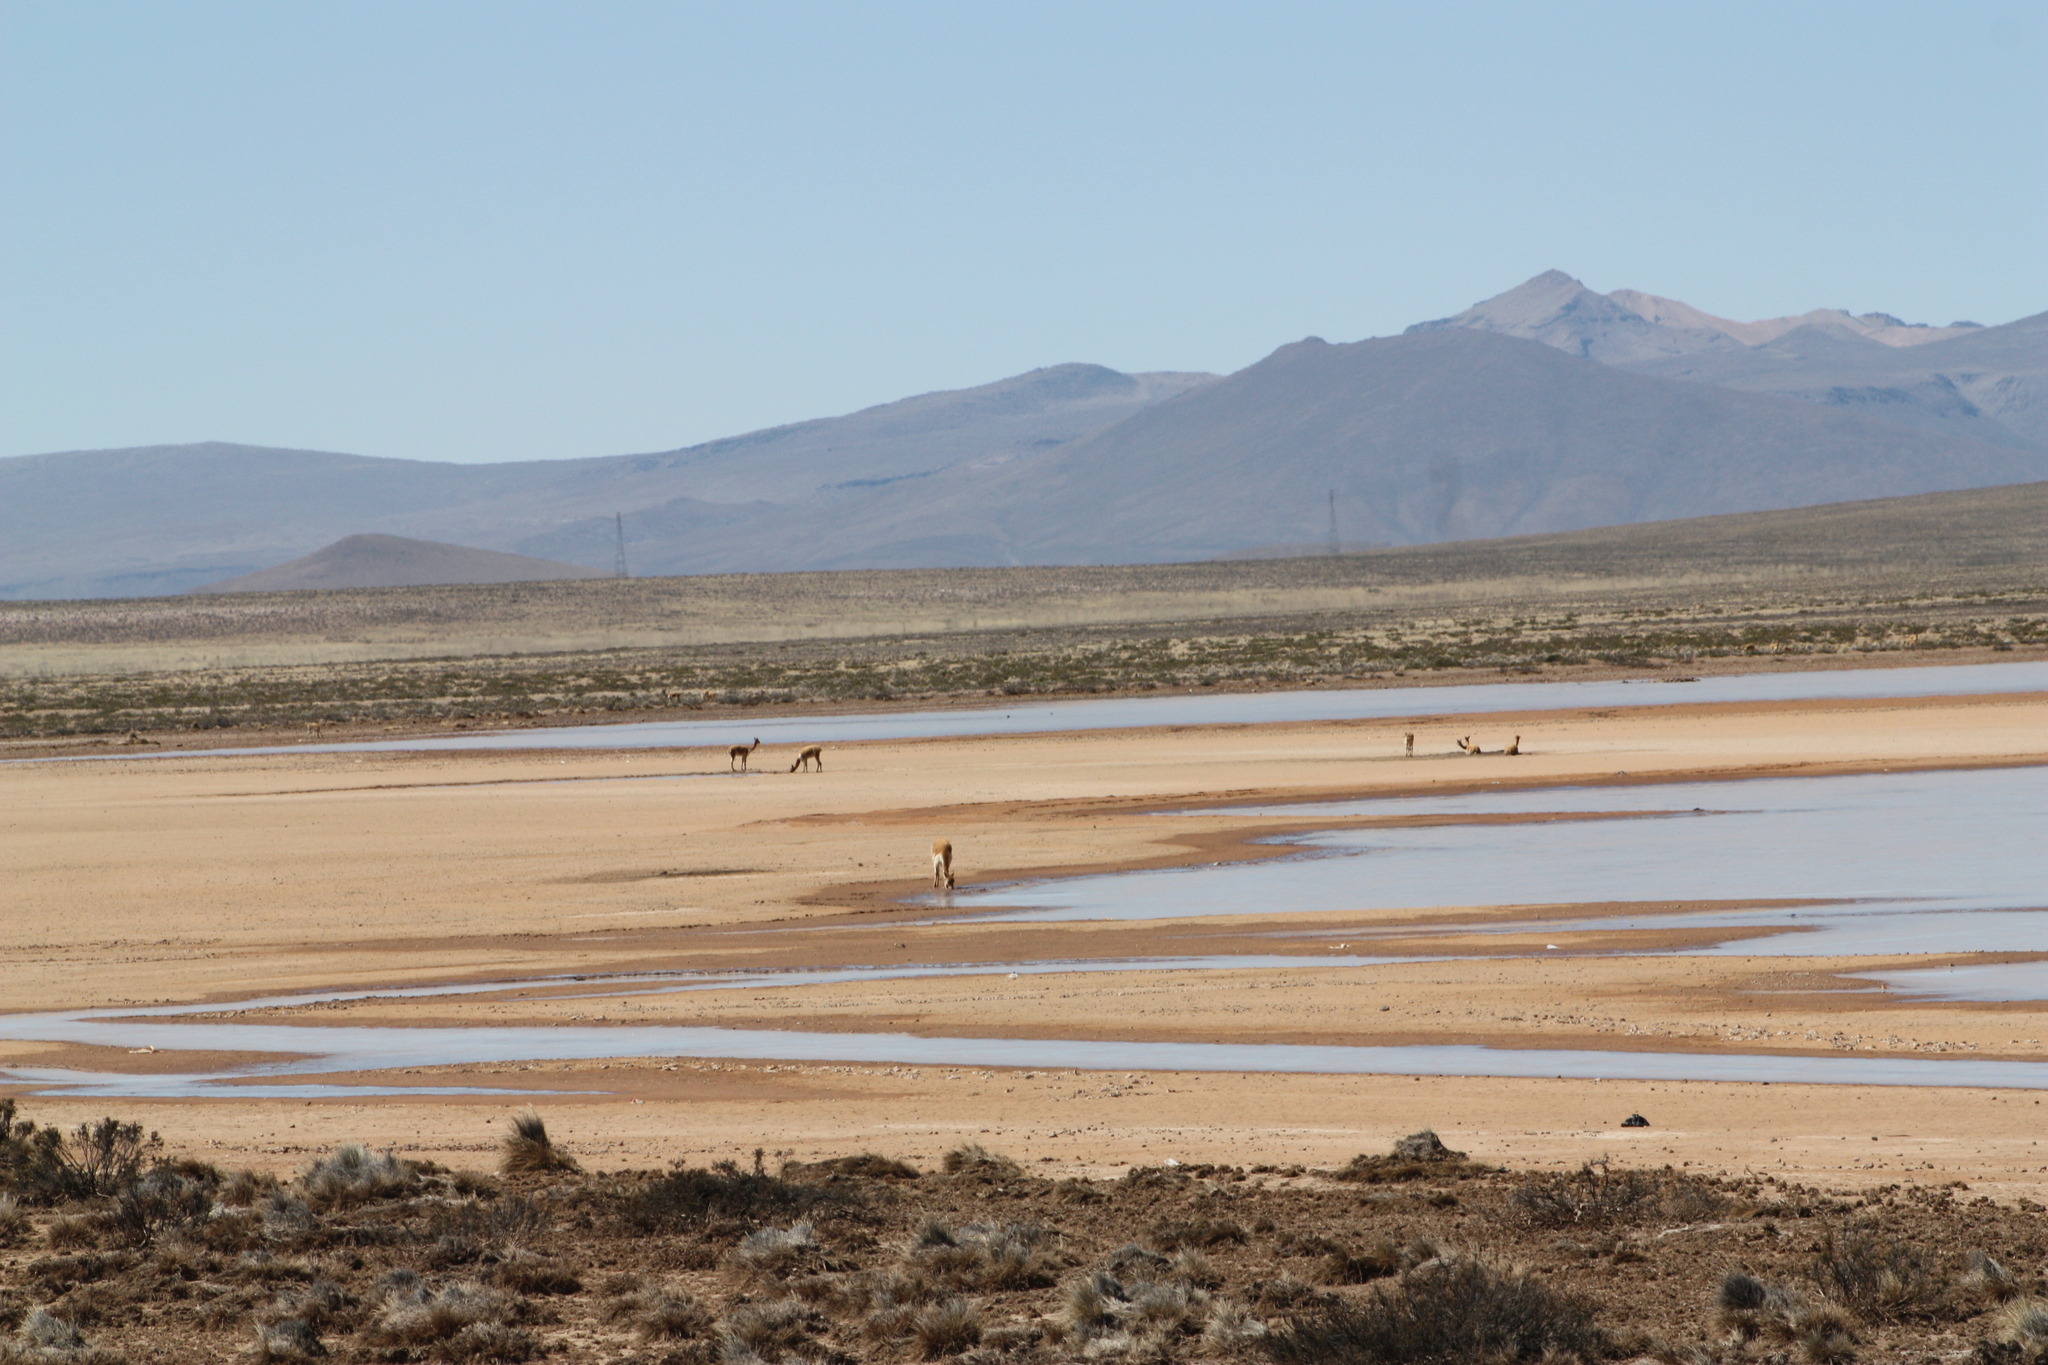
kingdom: Animalia
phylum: Chordata
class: Mammalia
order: Artiodactyla
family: Camelidae
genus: Vicugna
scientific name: Vicugna vicugna
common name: Vicugna
